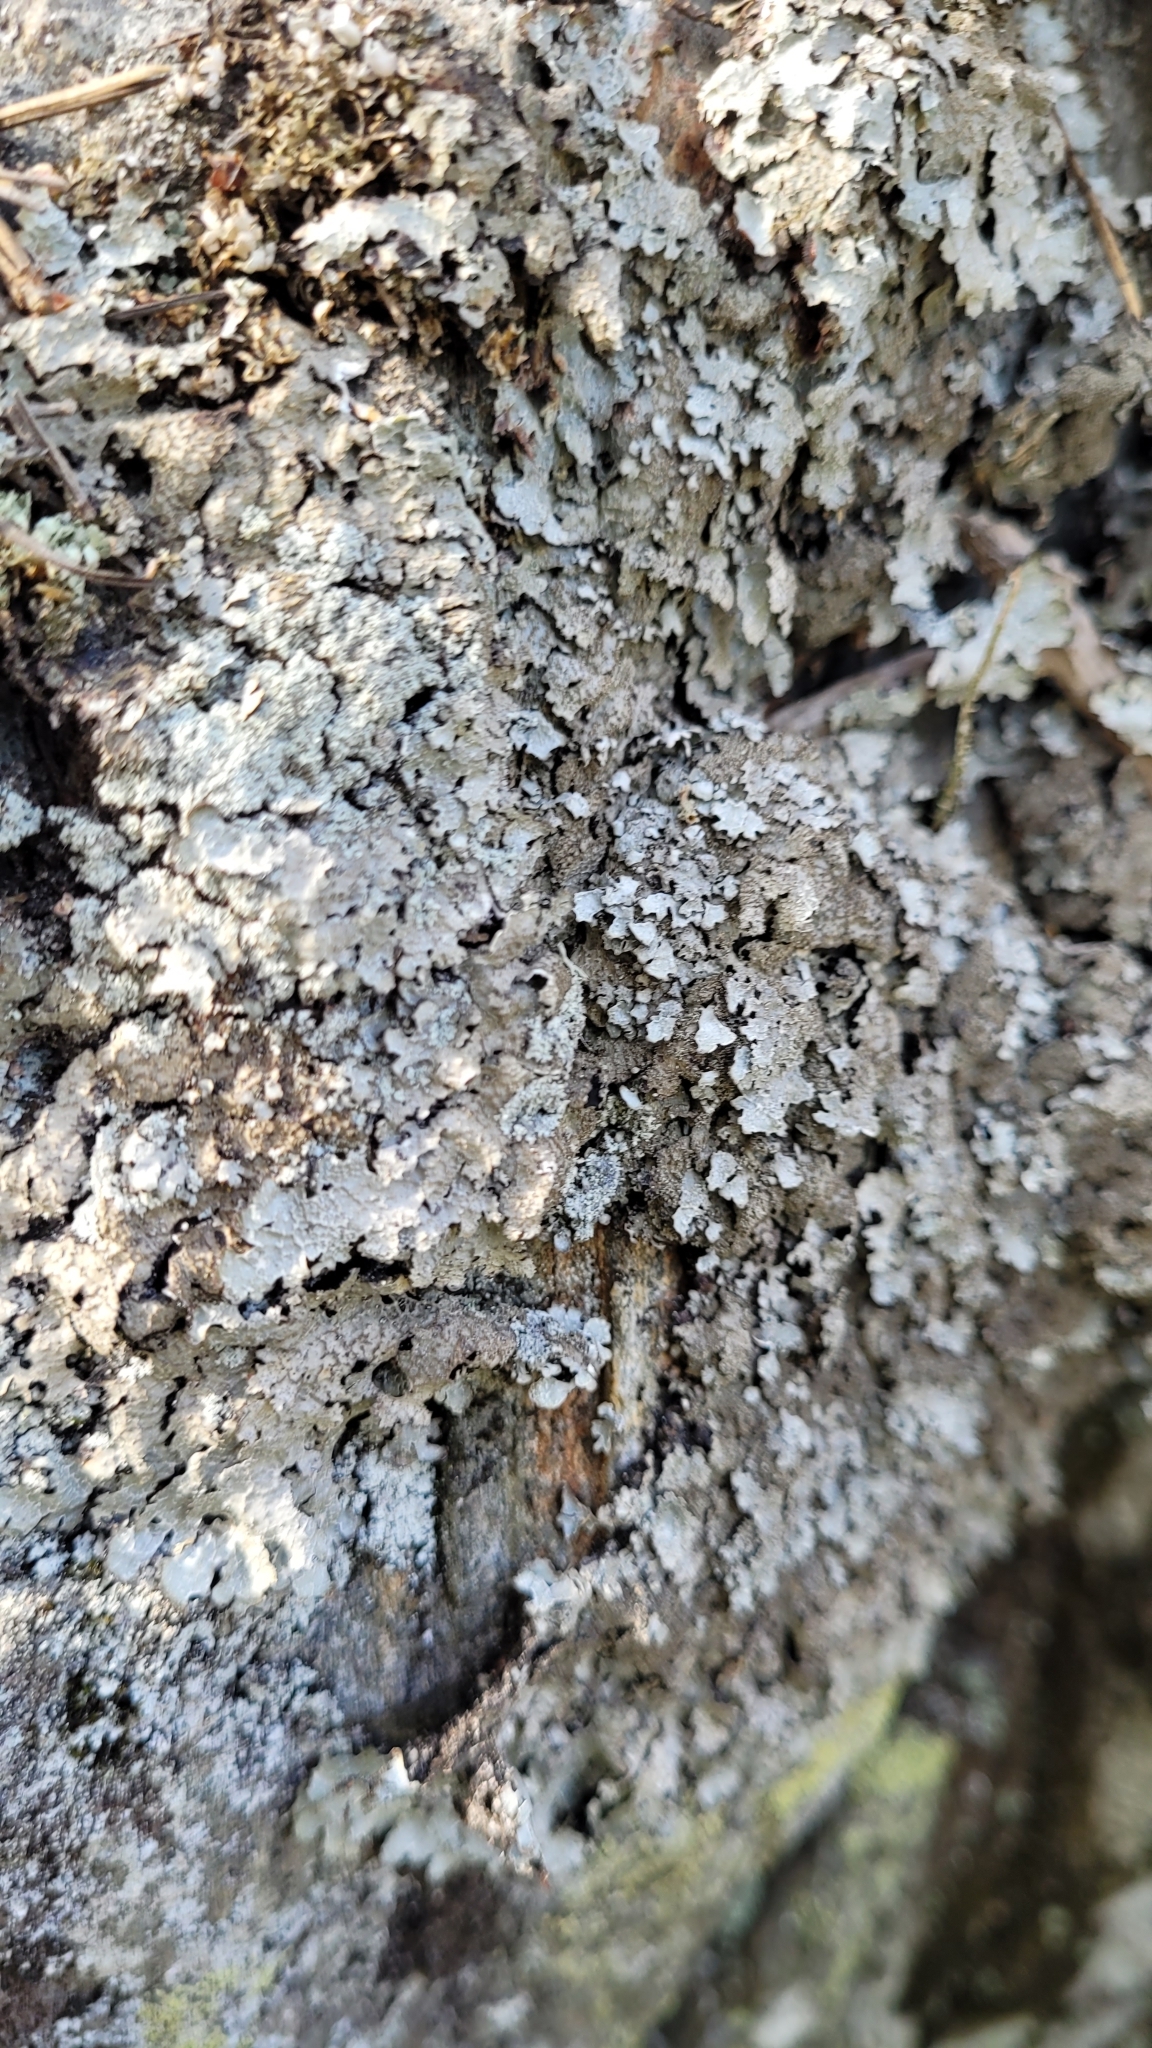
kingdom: Fungi
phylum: Ascomycota
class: Lecanoromycetes
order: Lecanorales
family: Parmeliaceae
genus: Parmelia
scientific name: Parmelia saxatilis
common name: Salted shield lichen
